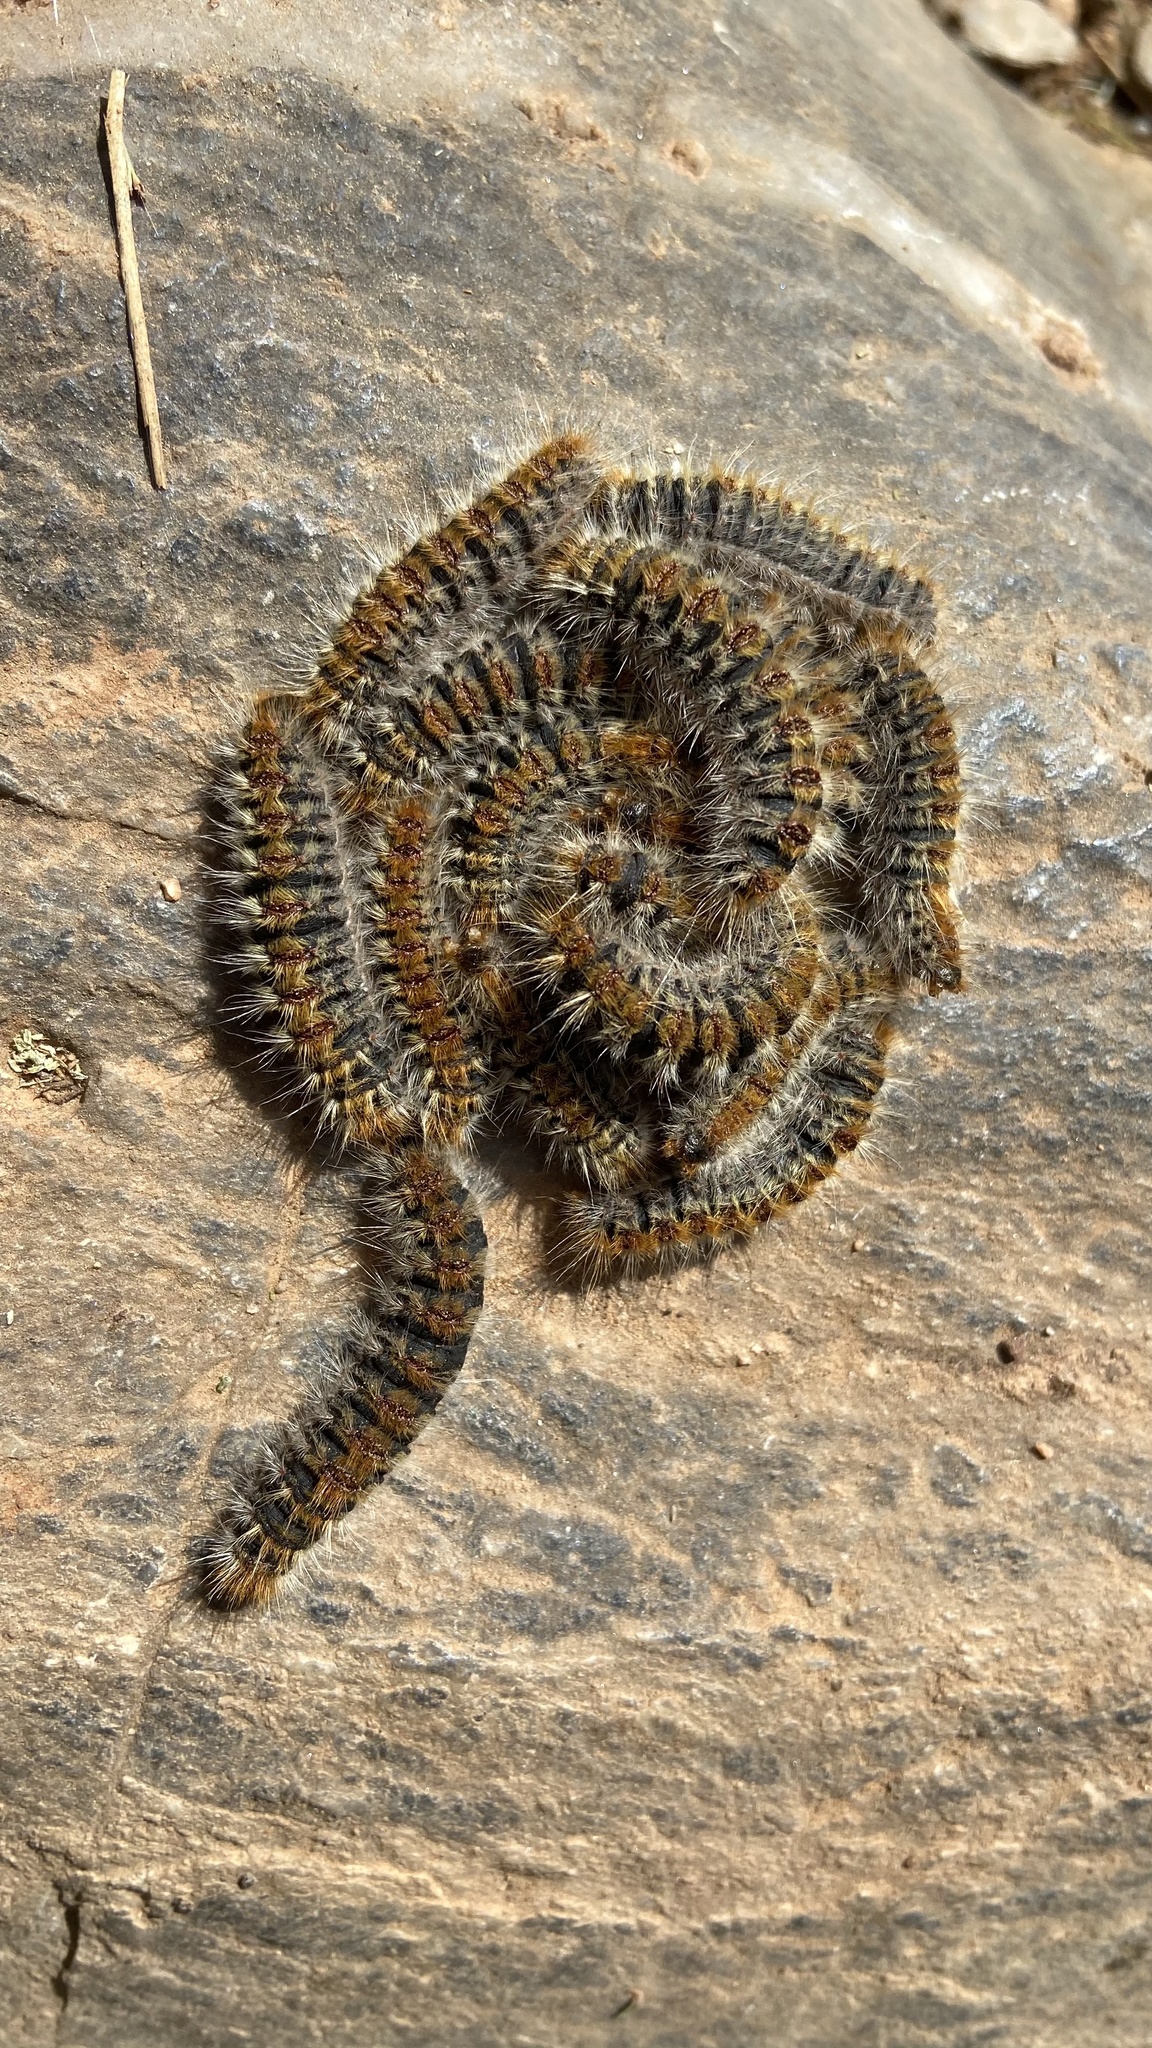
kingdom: Animalia
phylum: Arthropoda
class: Insecta
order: Lepidoptera
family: Notodontidae
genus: Thaumetopoea
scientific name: Thaumetopoea pityocampa
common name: Pine processionary
